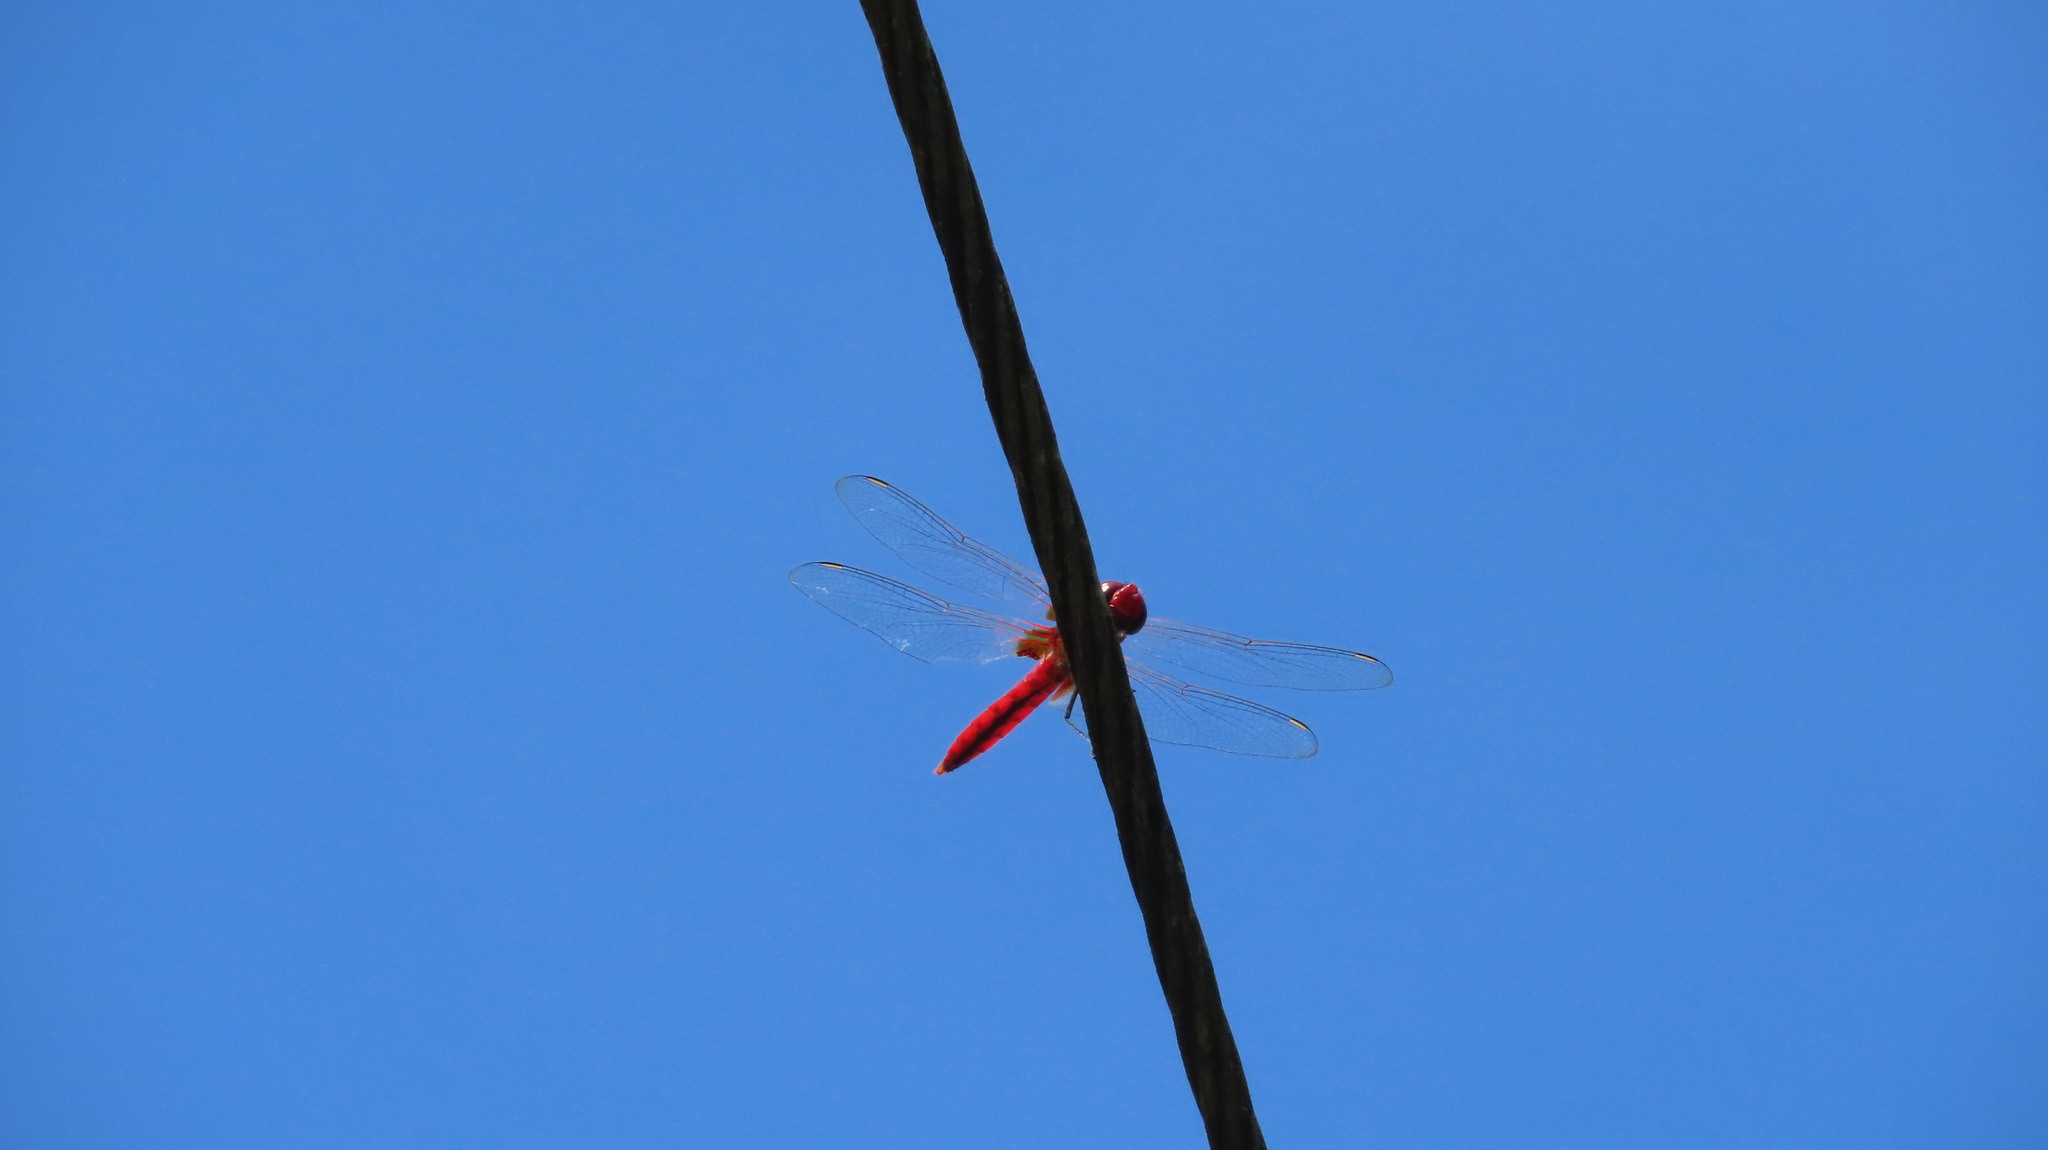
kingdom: Animalia
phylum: Arthropoda
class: Insecta
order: Odonata
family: Libellulidae
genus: Urothemis
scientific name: Urothemis signata
